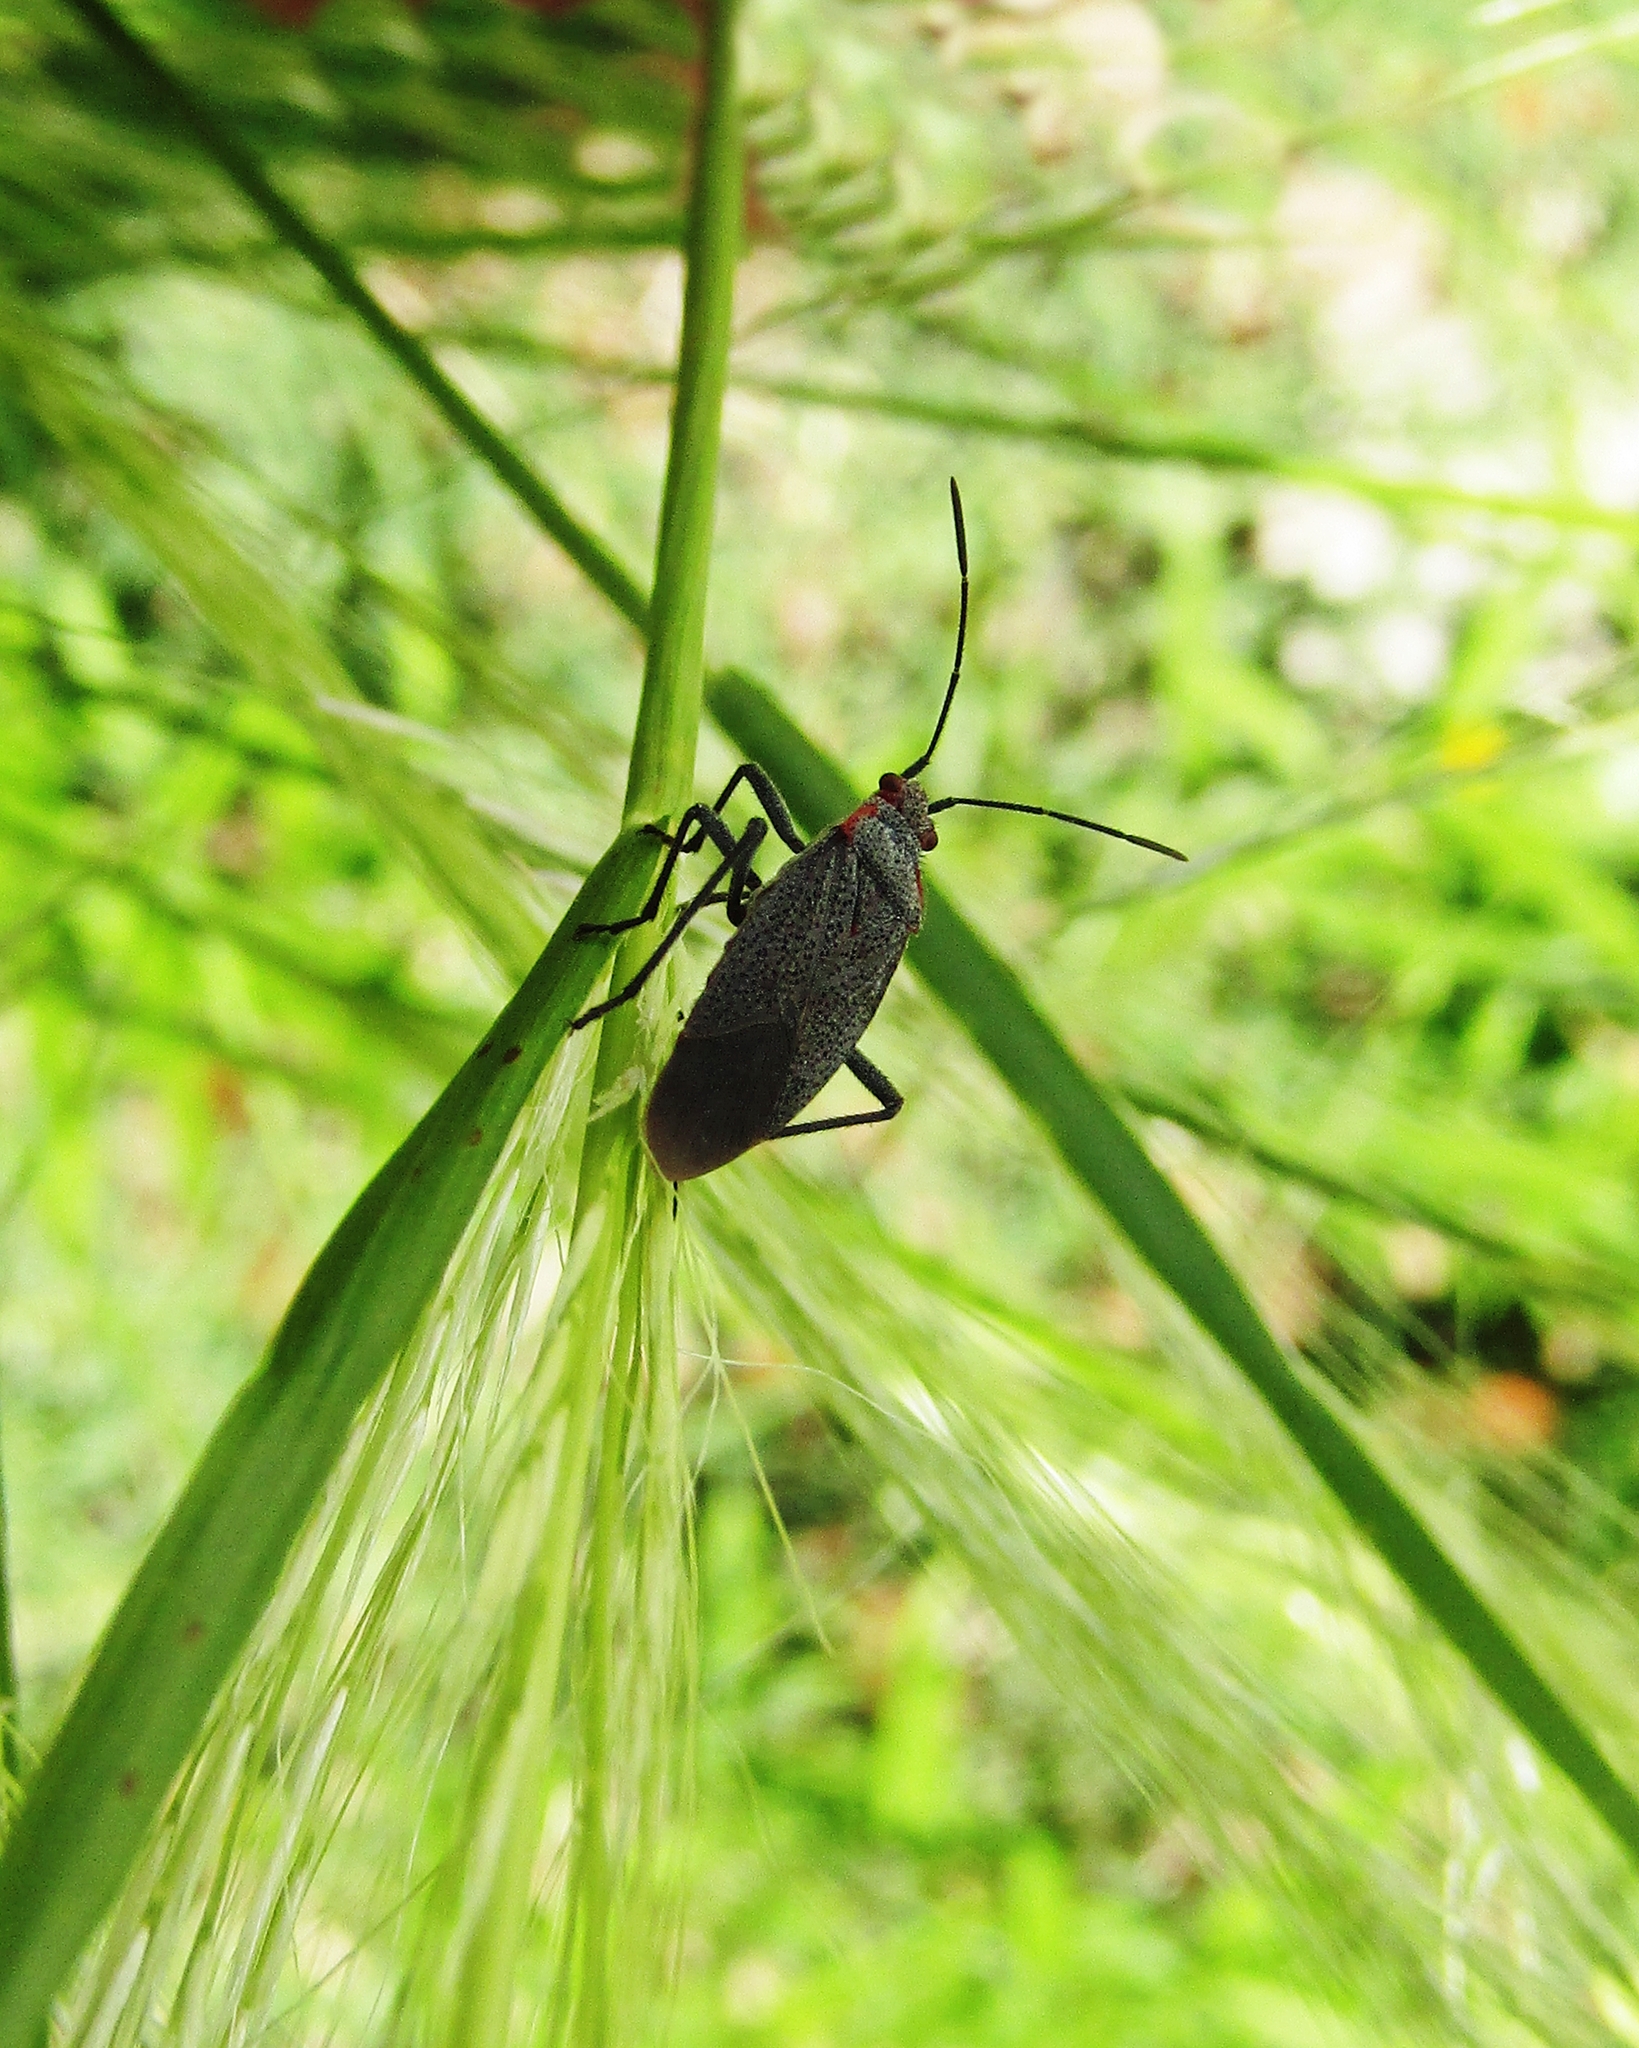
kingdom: Animalia
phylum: Arthropoda
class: Insecta
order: Hemiptera
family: Rhopalidae
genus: Jadera
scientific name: Jadera parapectoralis
